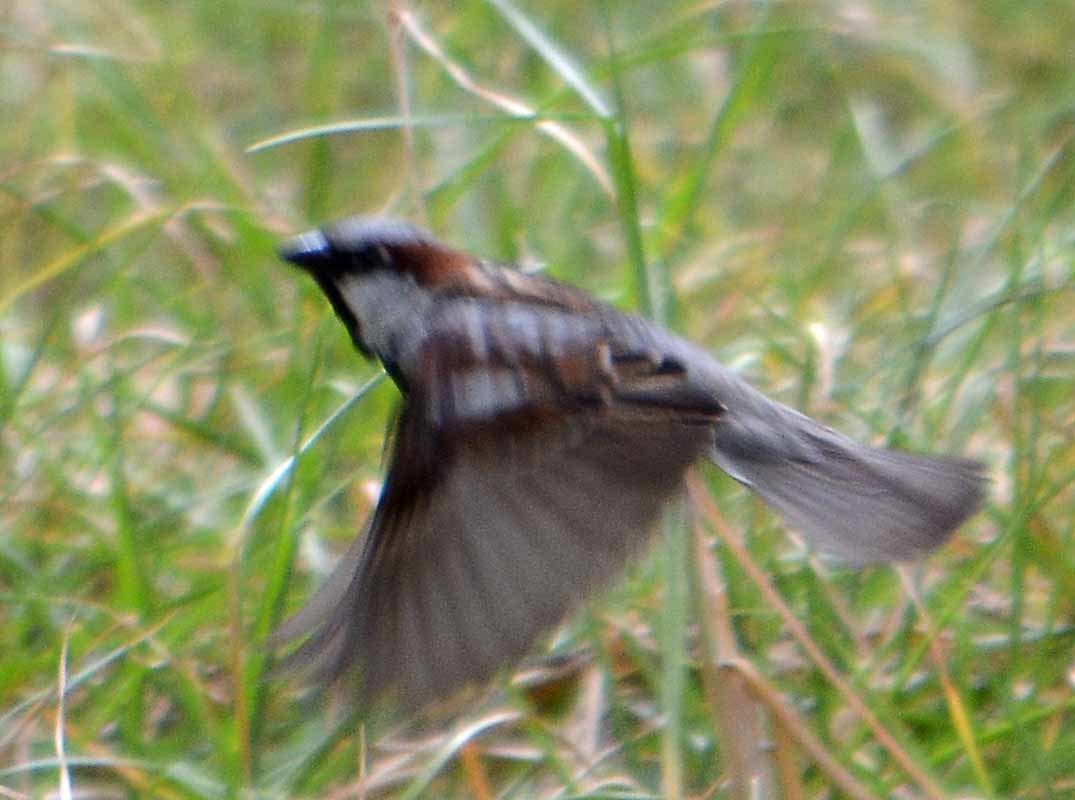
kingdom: Animalia
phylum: Chordata
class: Aves
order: Passeriformes
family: Passeridae
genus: Passer
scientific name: Passer domesticus
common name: House sparrow
